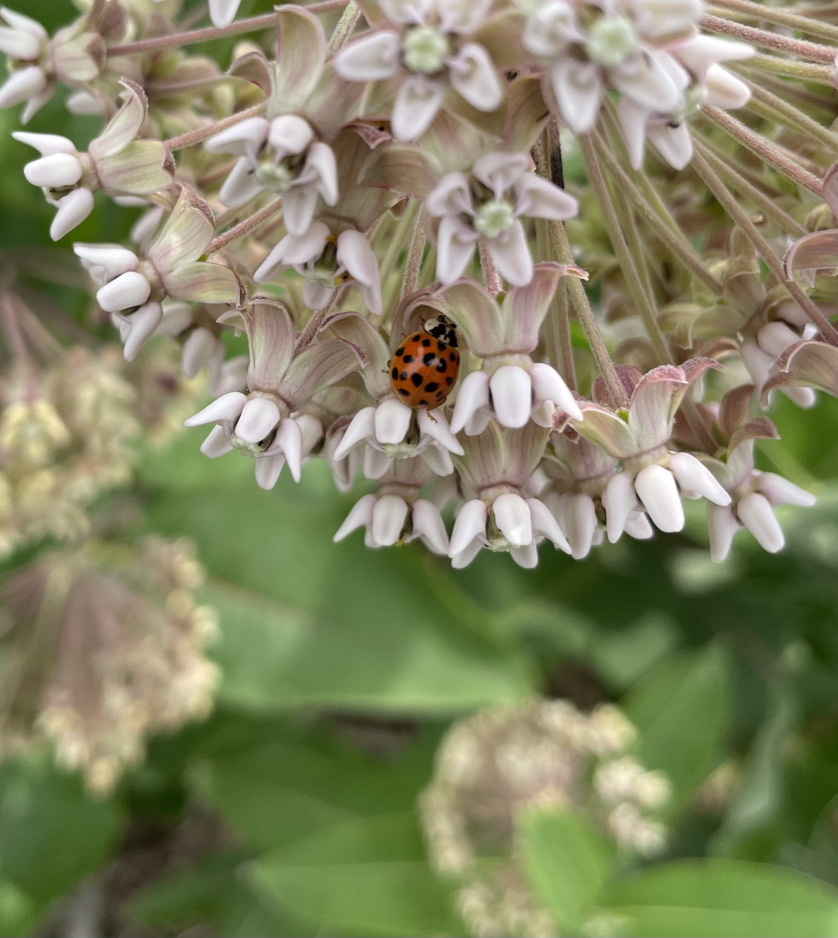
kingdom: Animalia
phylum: Arthropoda
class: Insecta
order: Coleoptera
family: Coccinellidae
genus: Harmonia
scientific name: Harmonia axyridis
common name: Harlequin ladybird
